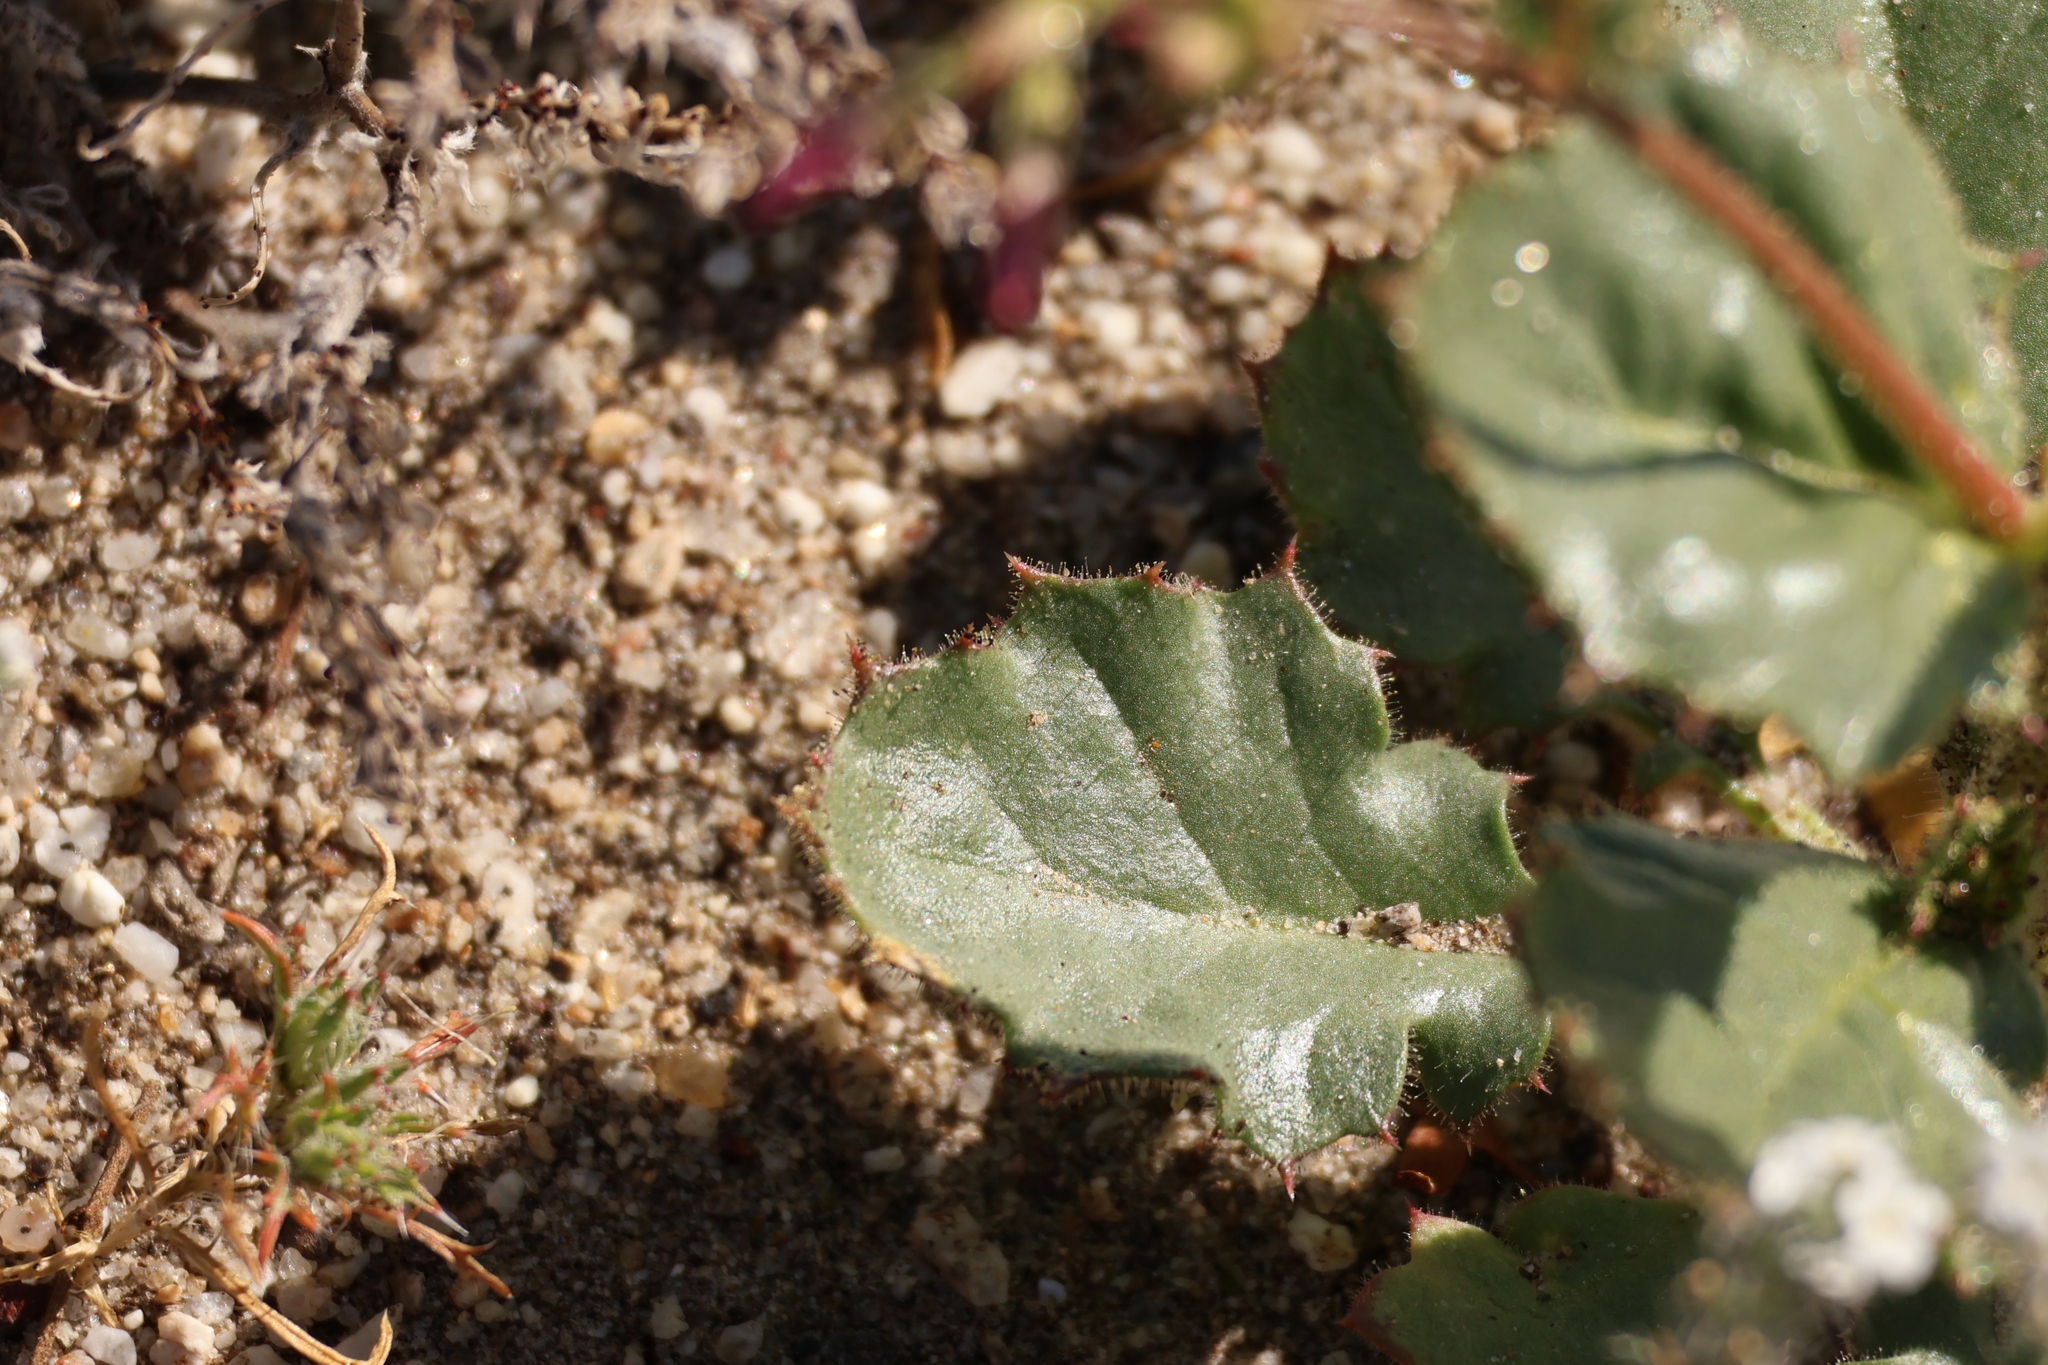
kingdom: Plantae
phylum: Tracheophyta
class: Magnoliopsida
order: Ericales
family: Polemoniaceae
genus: Aliciella
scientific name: Aliciella latifolia
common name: Broad-leaf gilia
